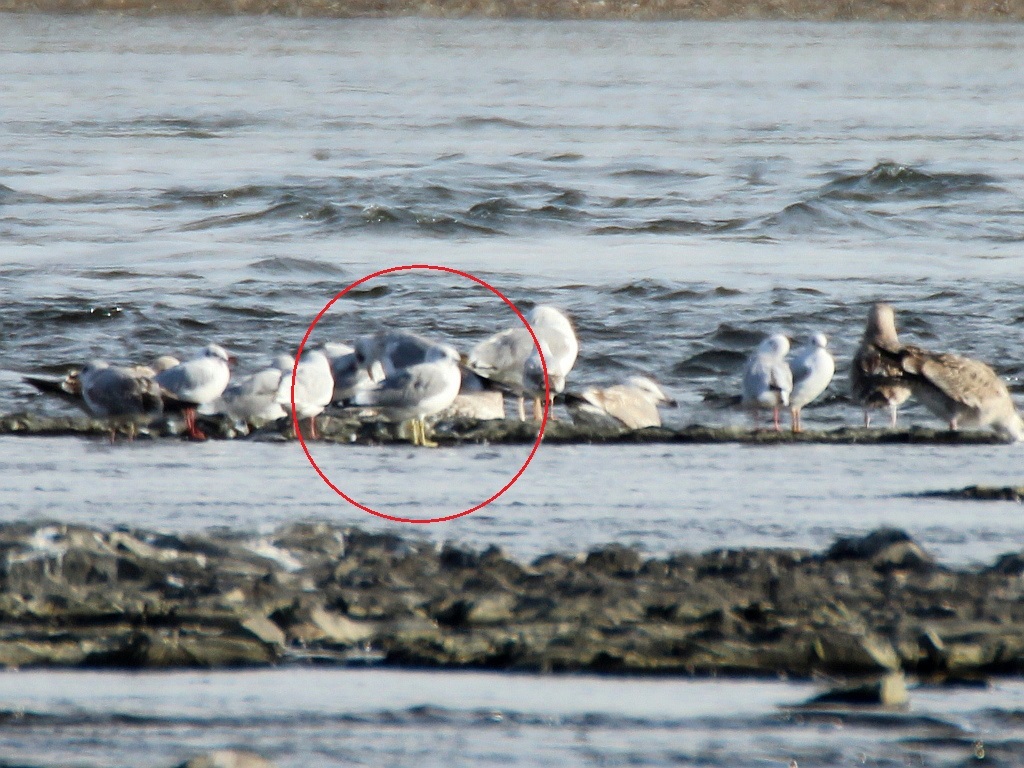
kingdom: Animalia
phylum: Chordata
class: Aves
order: Charadriiformes
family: Laridae
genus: Larus
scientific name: Larus canus
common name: Mew gull
